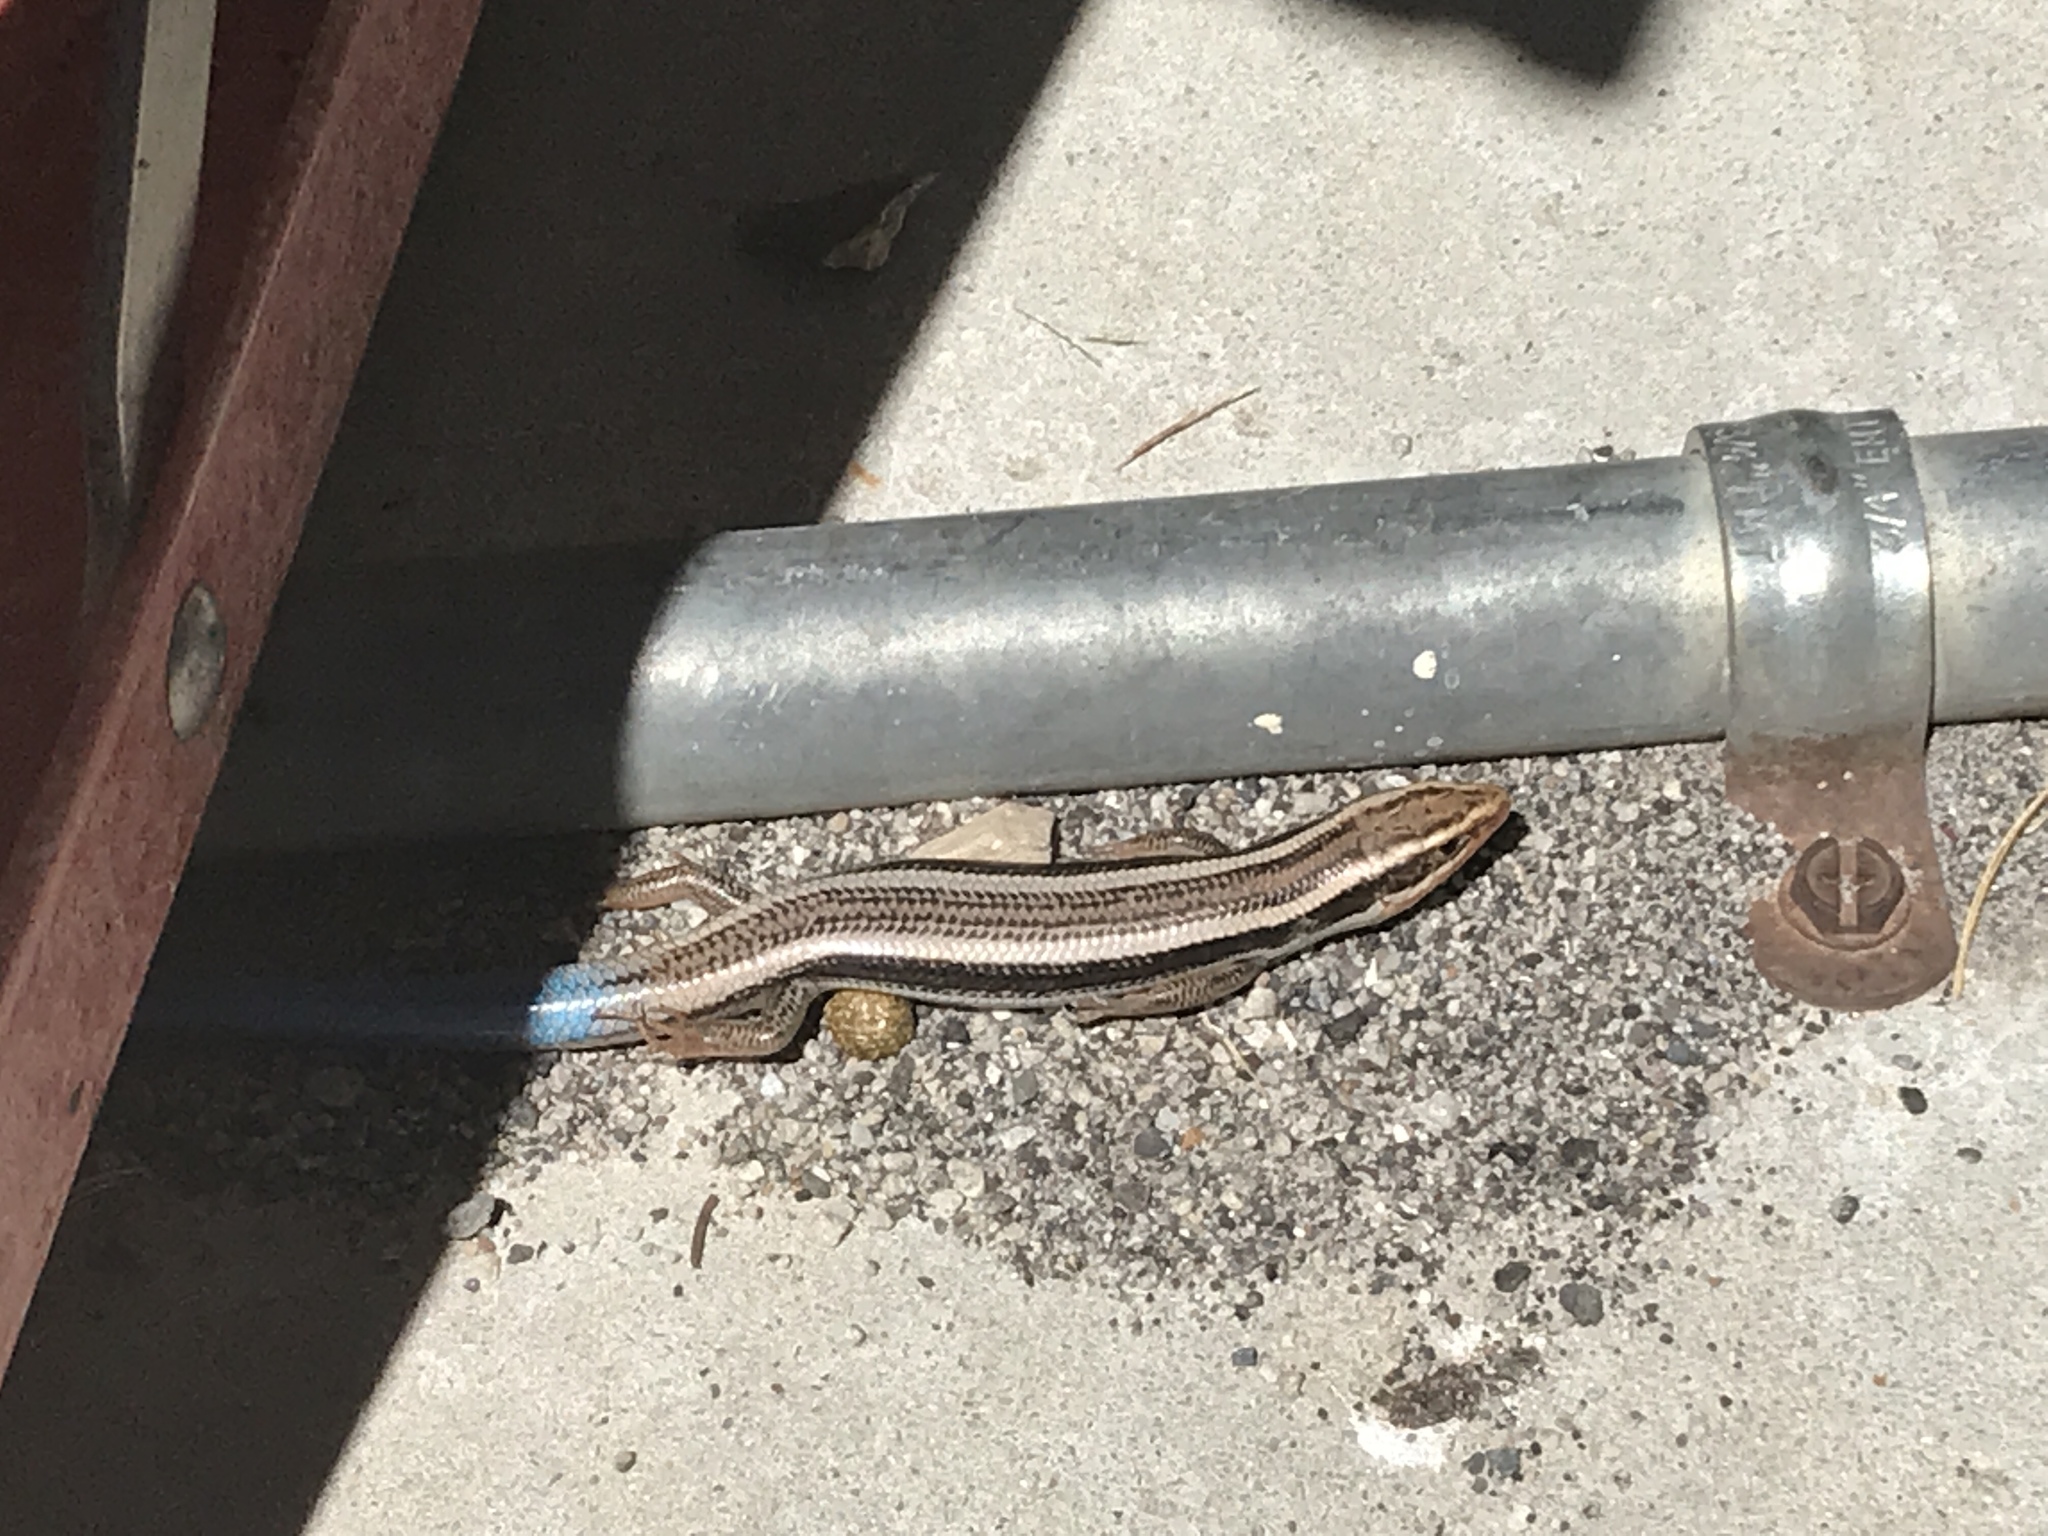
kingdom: Animalia
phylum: Chordata
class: Squamata
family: Scincidae
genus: Plestiodon
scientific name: Plestiodon skiltonianus
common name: Coronado island skink [interparietalis]
